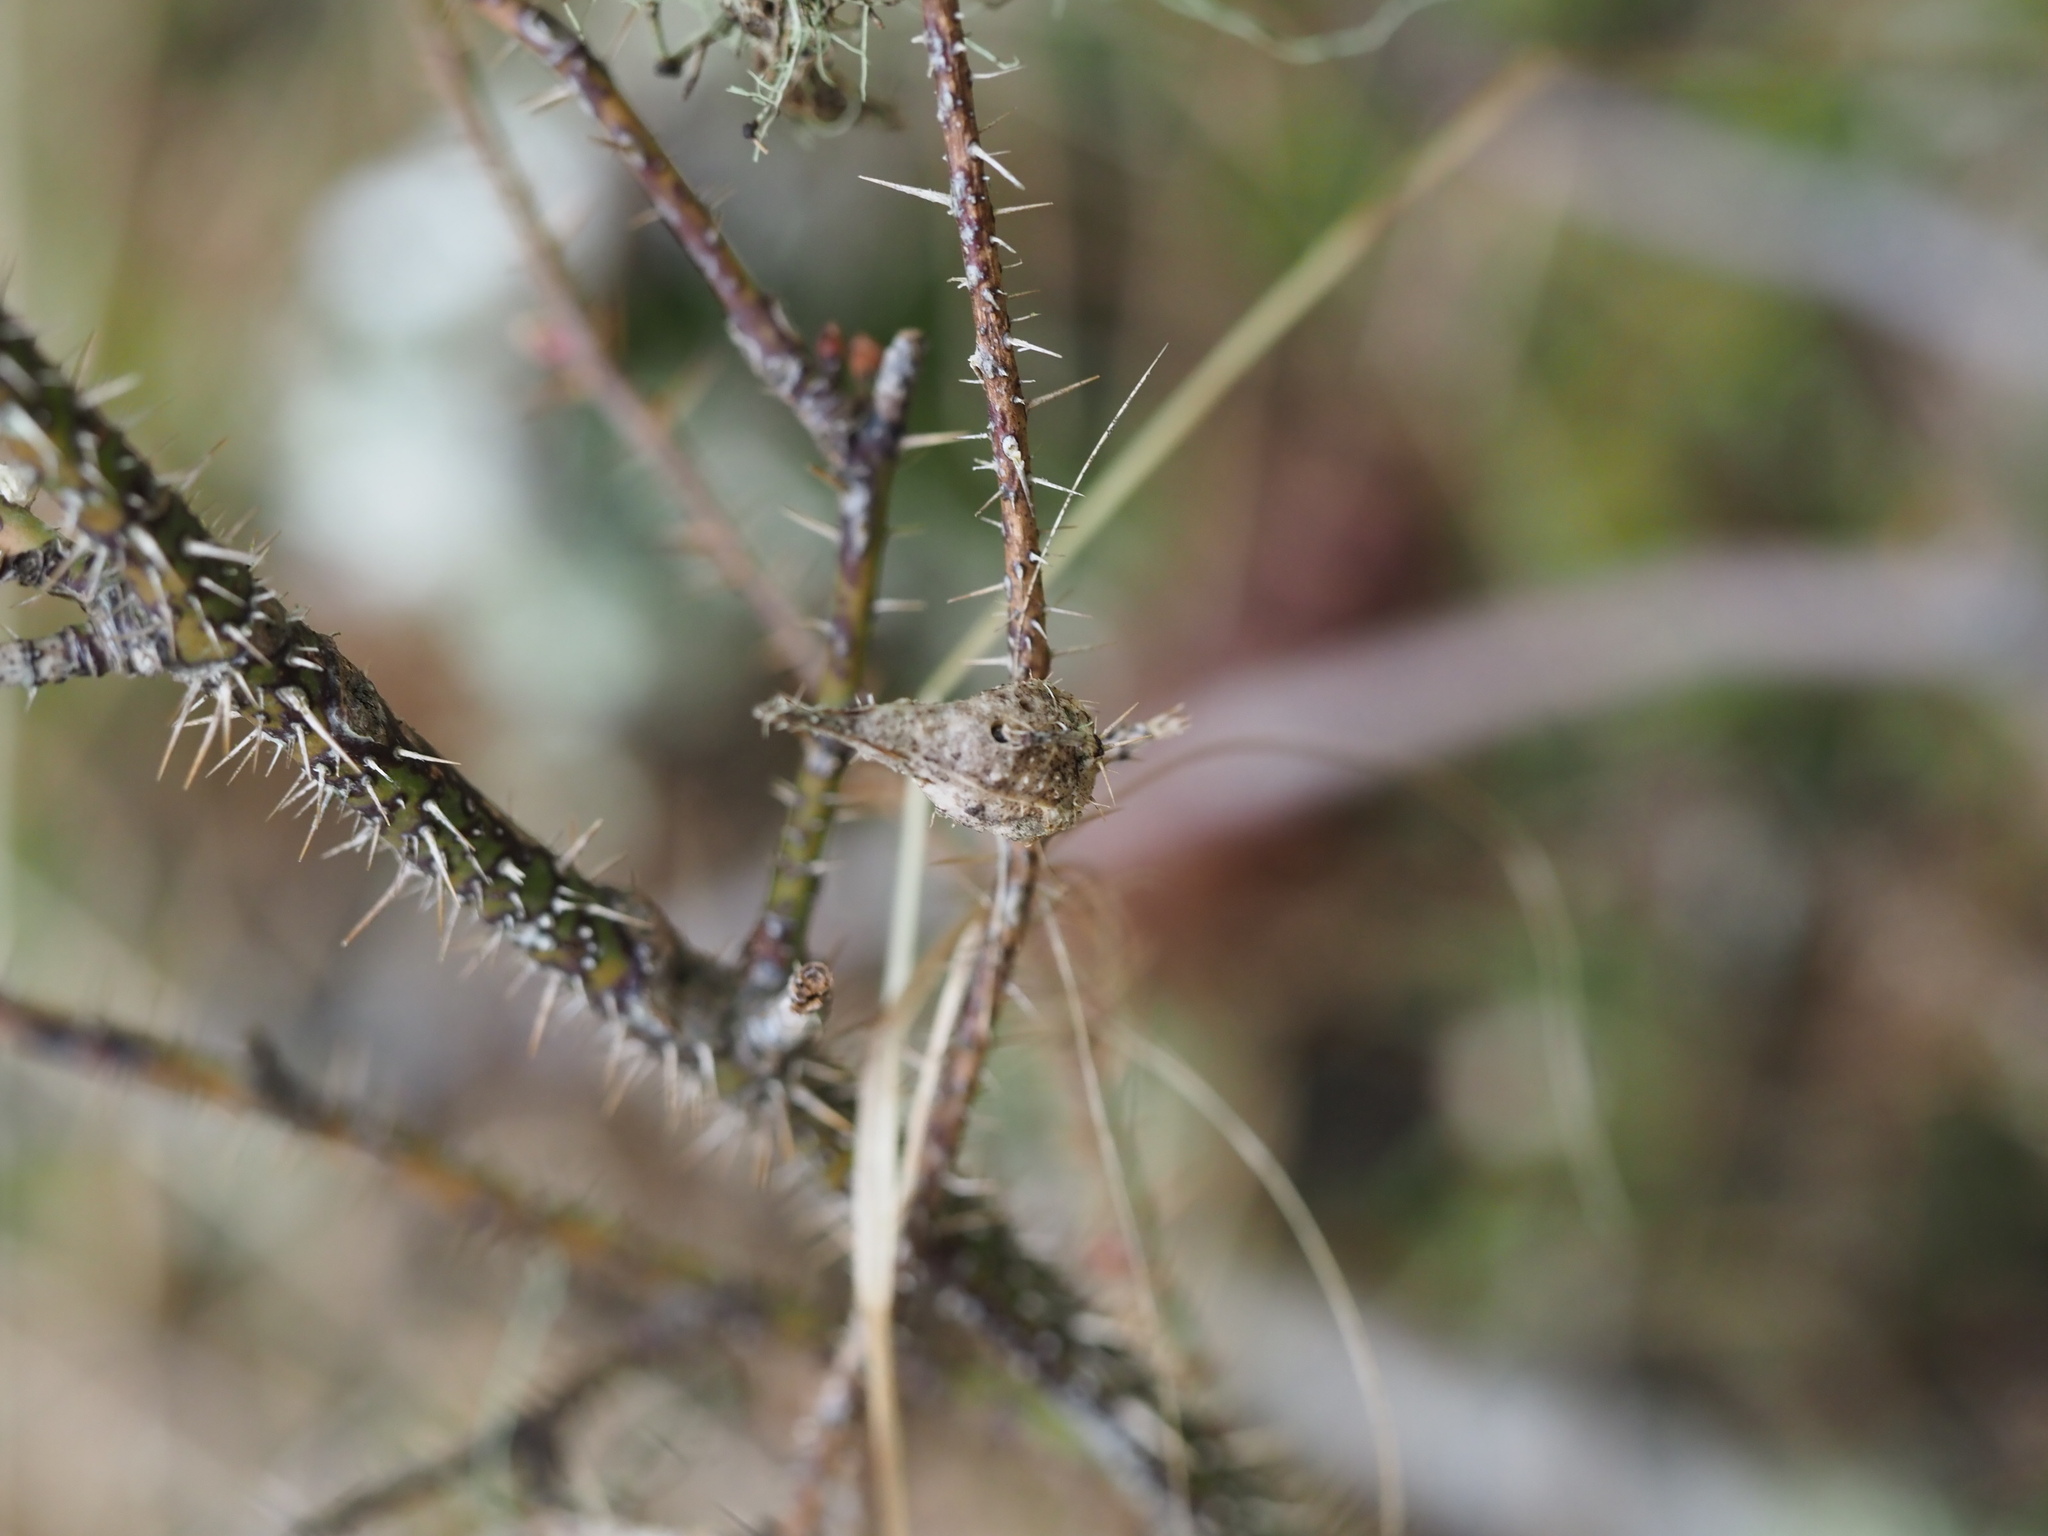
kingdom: Animalia
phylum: Arthropoda
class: Insecta
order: Hymenoptera
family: Cynipidae
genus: Diplolepis
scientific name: Diplolepis
